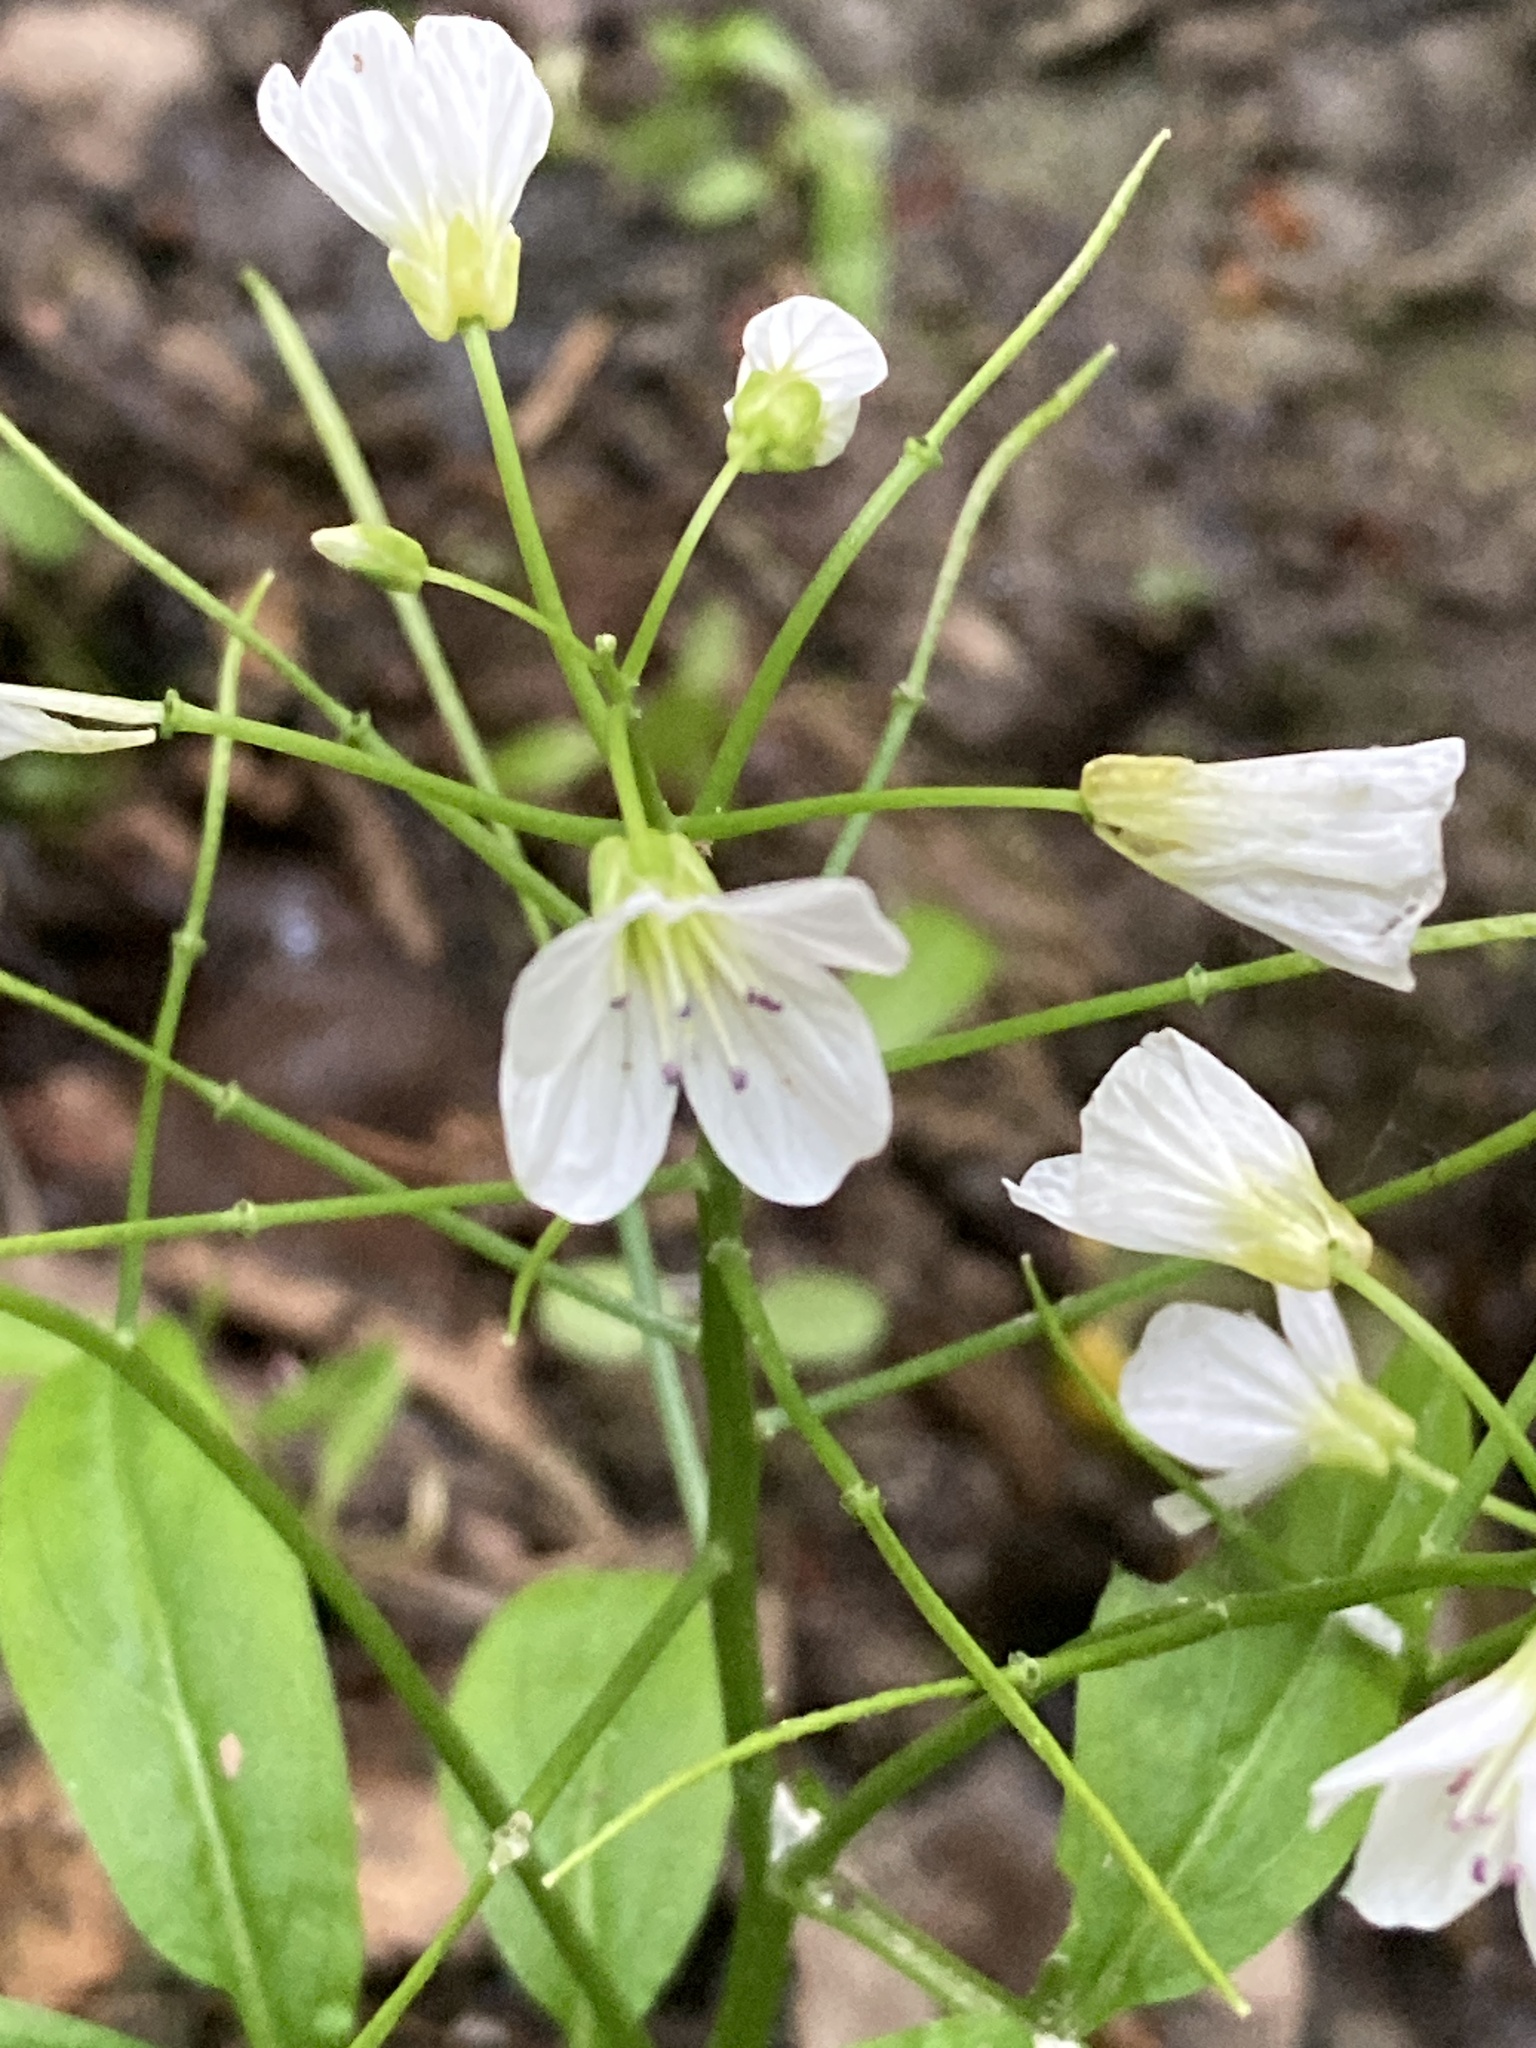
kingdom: Plantae
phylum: Tracheophyta
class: Magnoliopsida
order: Brassicales
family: Brassicaceae
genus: Cardamine
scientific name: Cardamine amara
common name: Large bitter-cress
